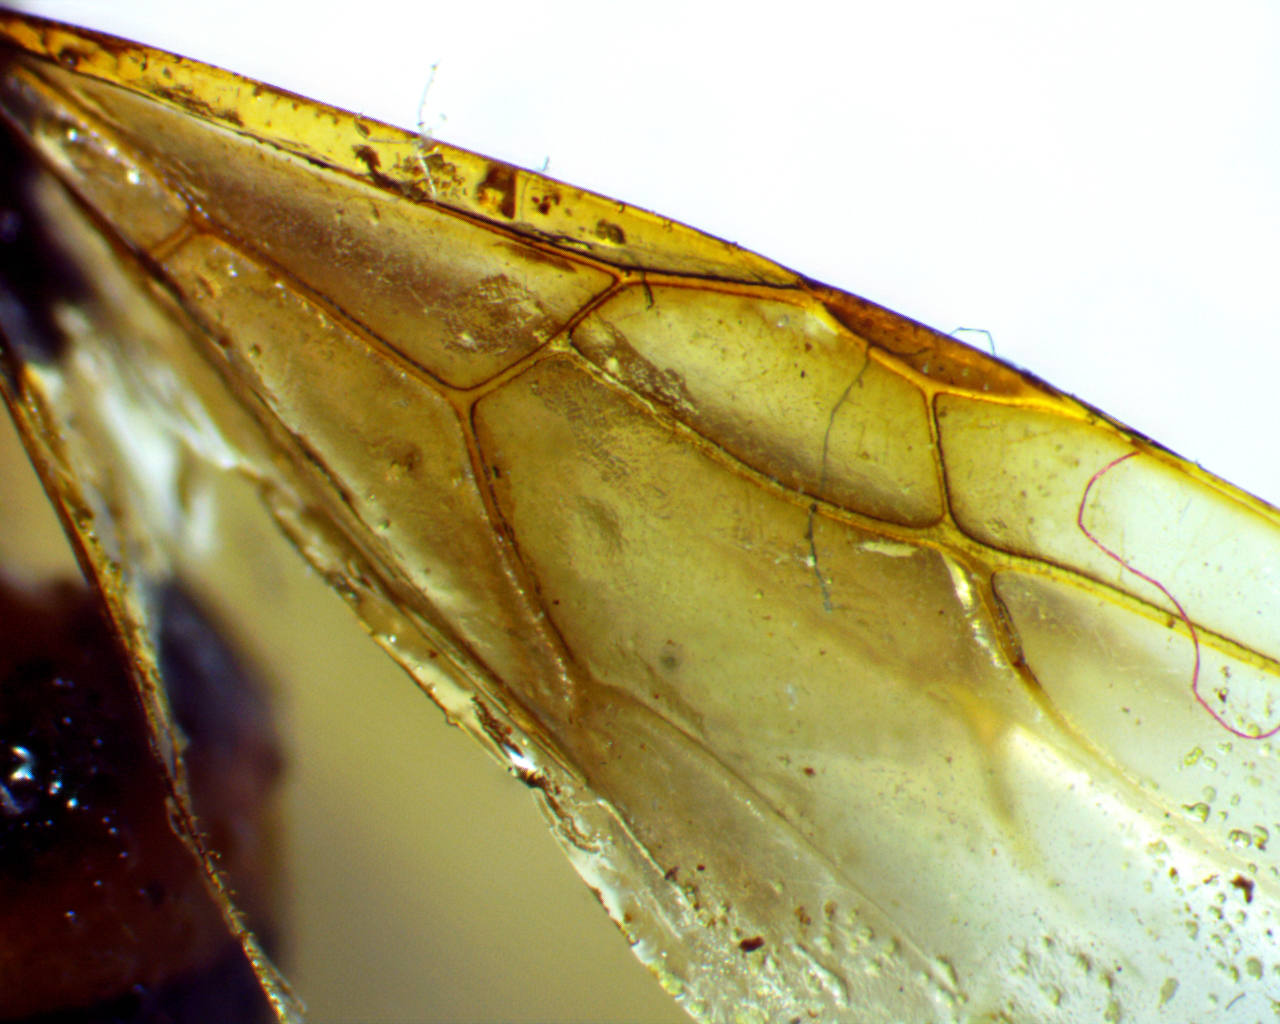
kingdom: Animalia
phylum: Arthropoda
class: Insecta
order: Hymenoptera
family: Formicidae
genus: Camponotus
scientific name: Camponotus subbarbatus
